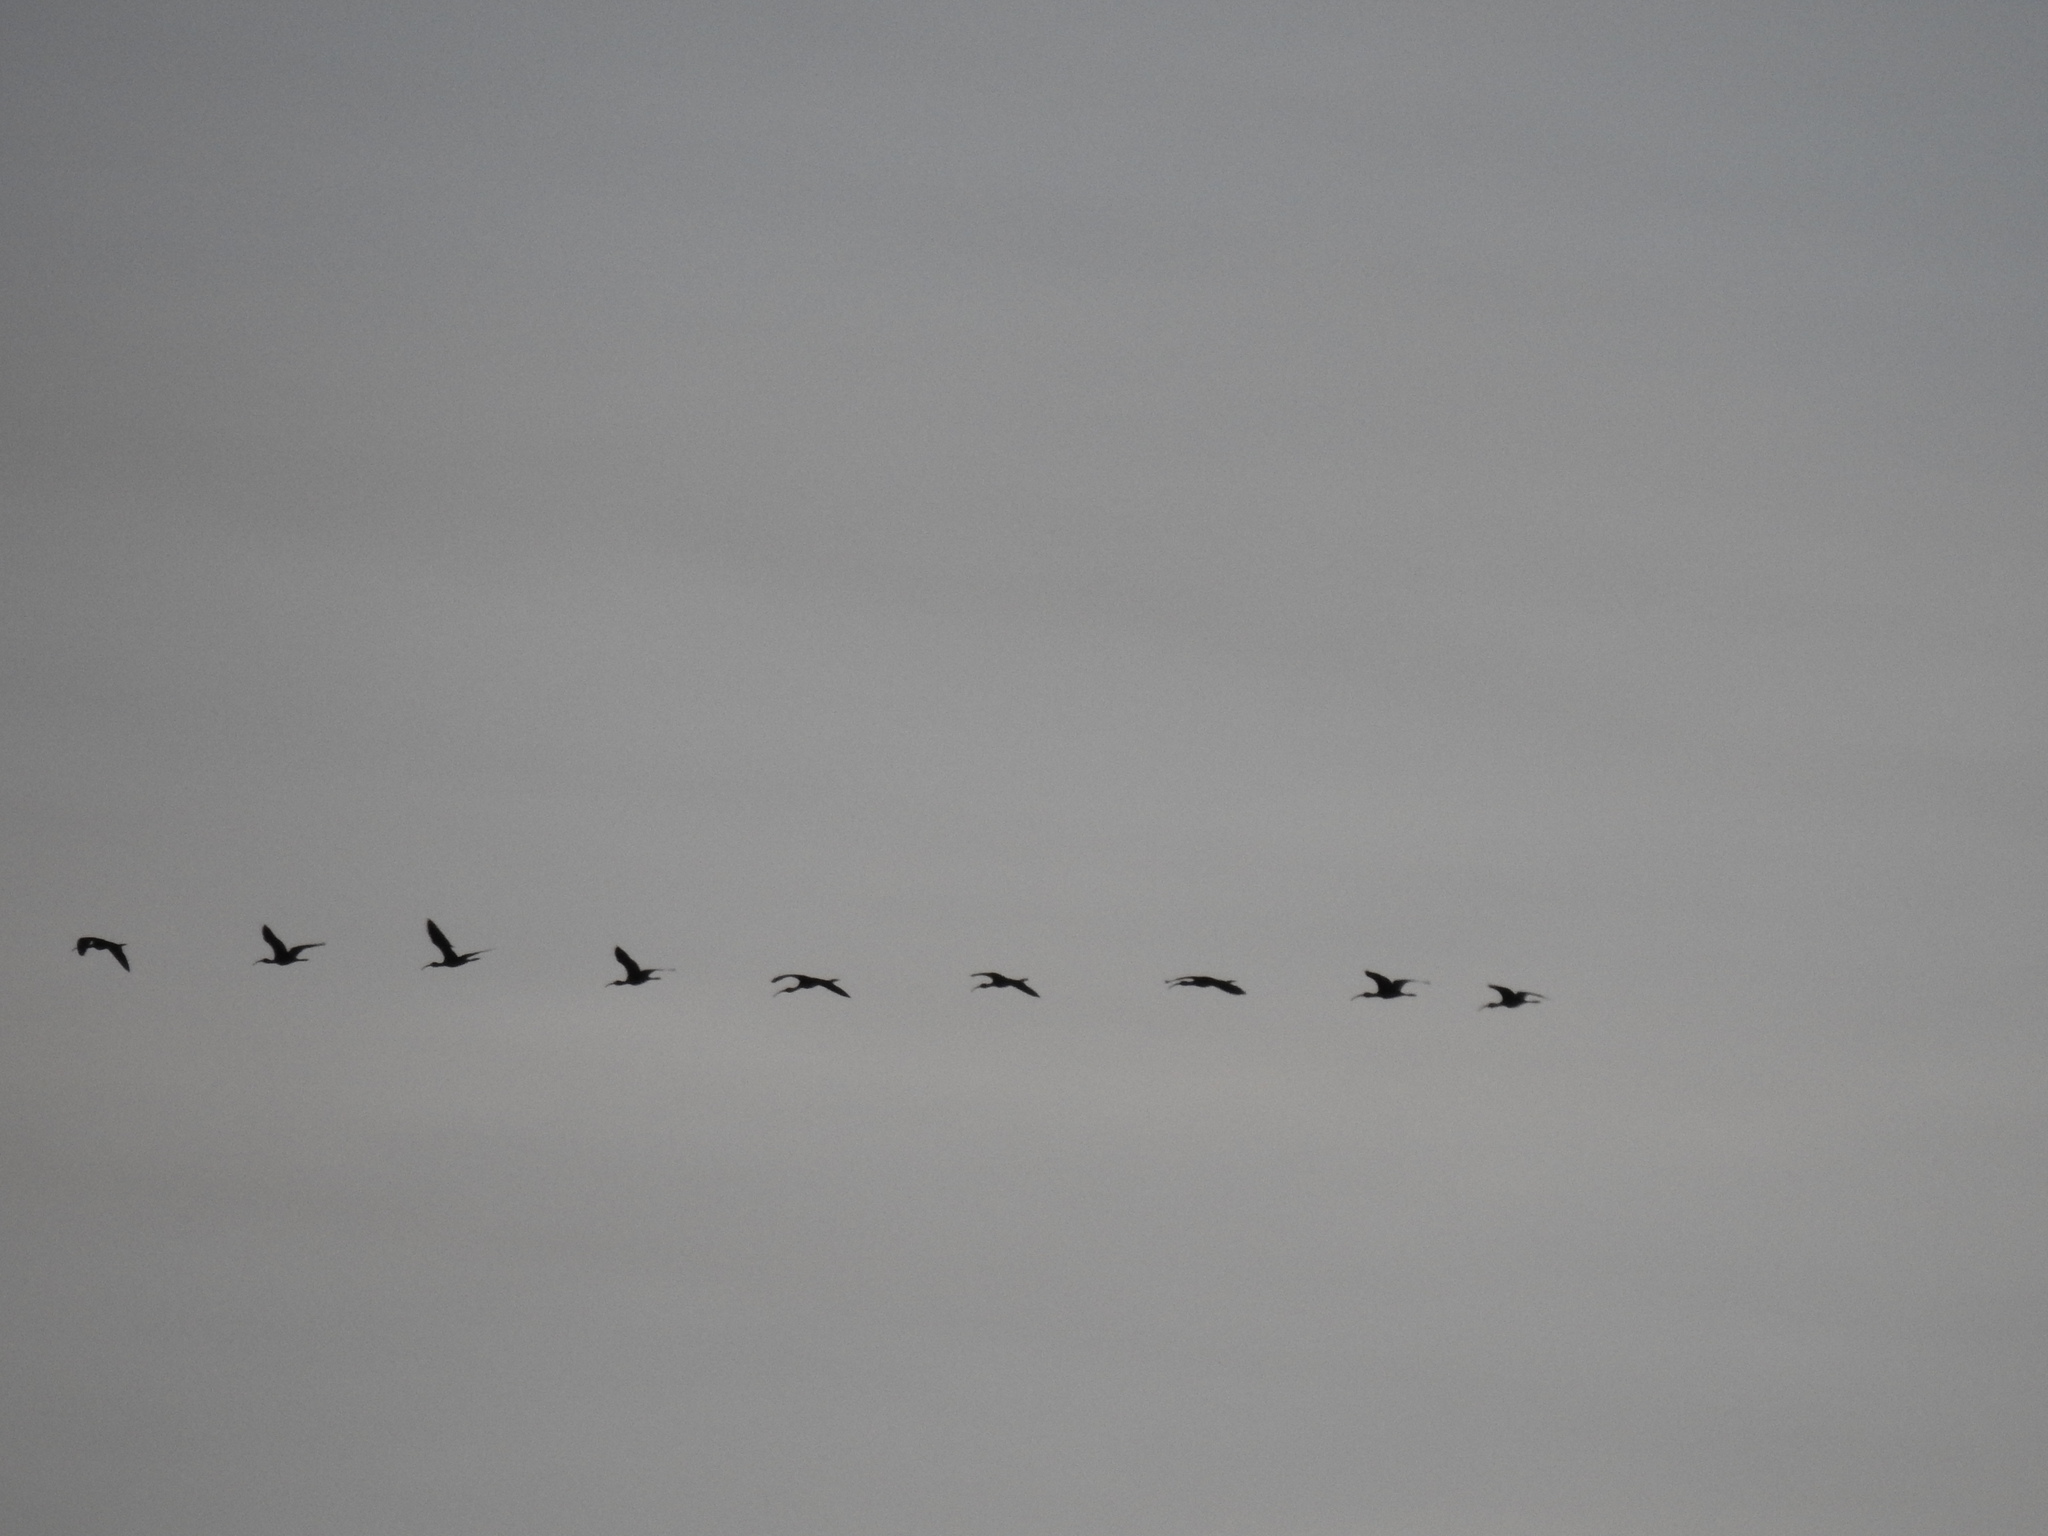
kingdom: Animalia
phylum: Chordata
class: Aves
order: Pelecaniformes
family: Threskiornithidae
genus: Plegadis
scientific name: Plegadis chihi
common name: White-faced ibis
